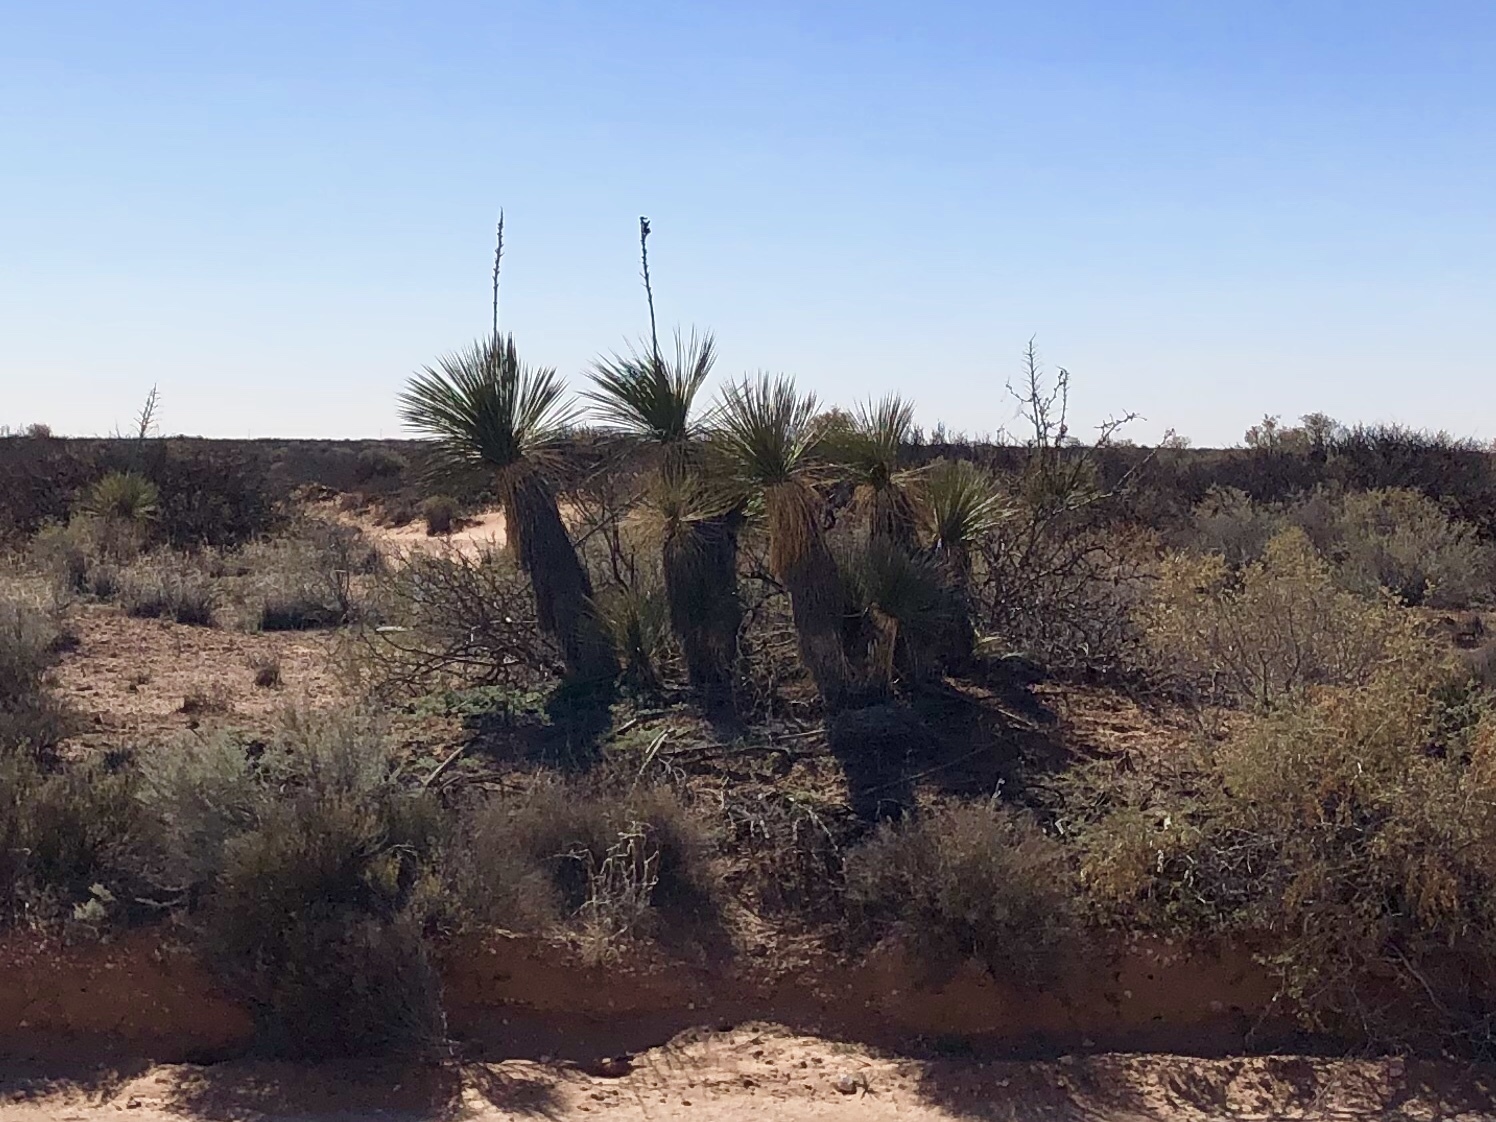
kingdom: Plantae
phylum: Tracheophyta
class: Liliopsida
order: Asparagales
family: Asparagaceae
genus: Yucca
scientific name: Yucca elata
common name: Palmella
